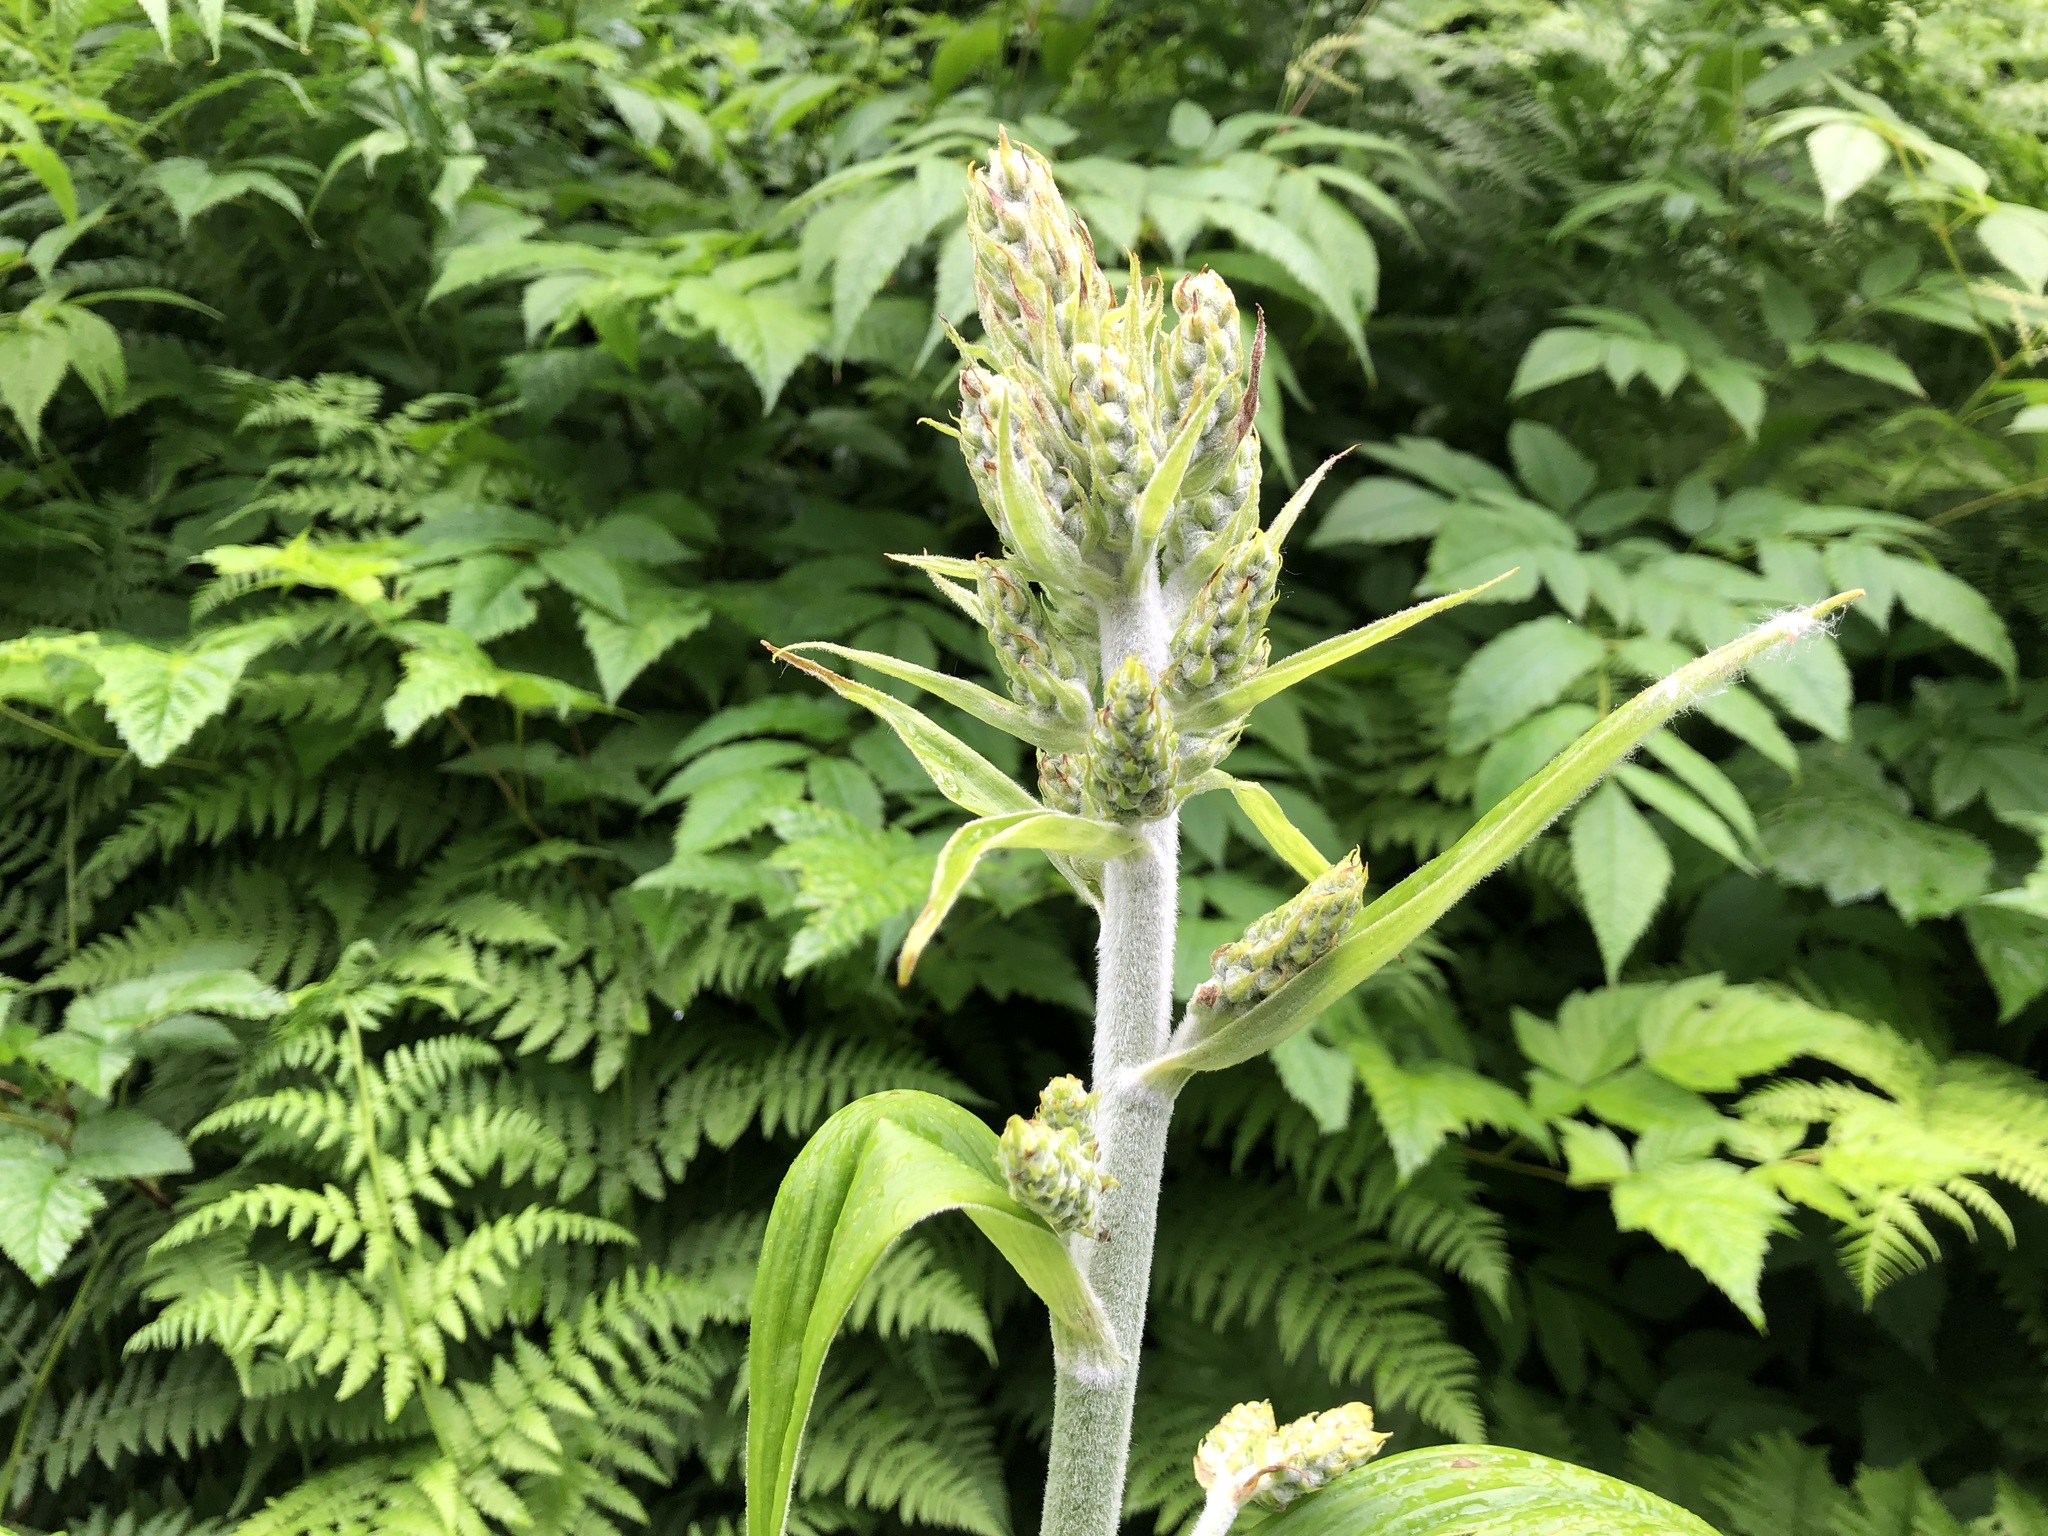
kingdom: Plantae
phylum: Tracheophyta
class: Liliopsida
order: Liliales
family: Melanthiaceae
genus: Veratrum
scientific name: Veratrum viride
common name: American false hellebore
